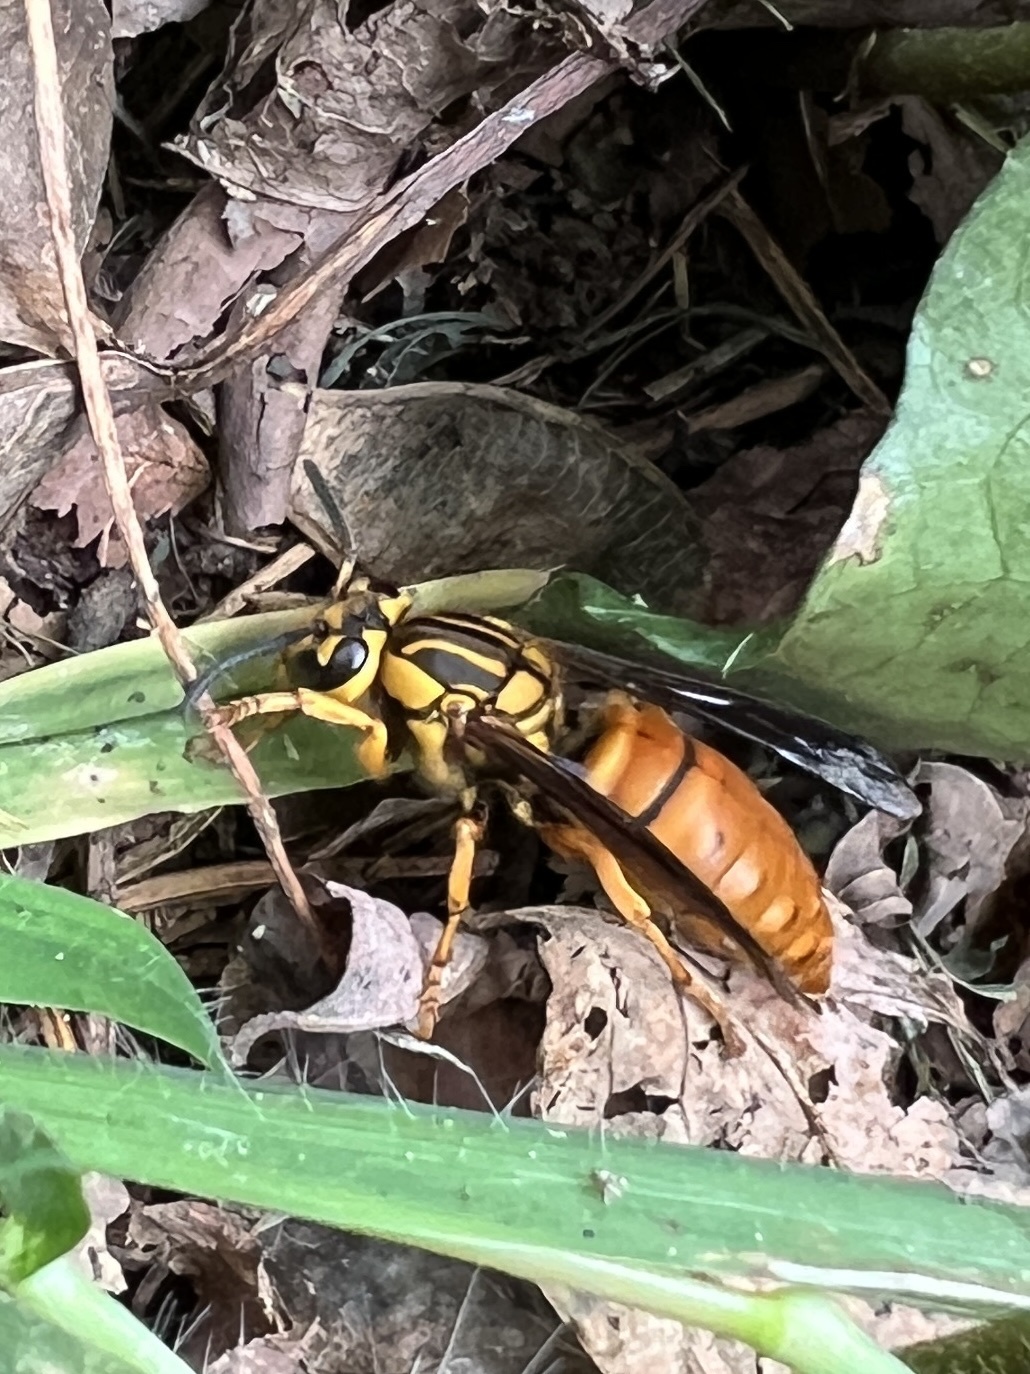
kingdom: Animalia
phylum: Arthropoda
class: Insecta
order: Hymenoptera
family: Vespidae
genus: Vespula
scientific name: Vespula squamosa
